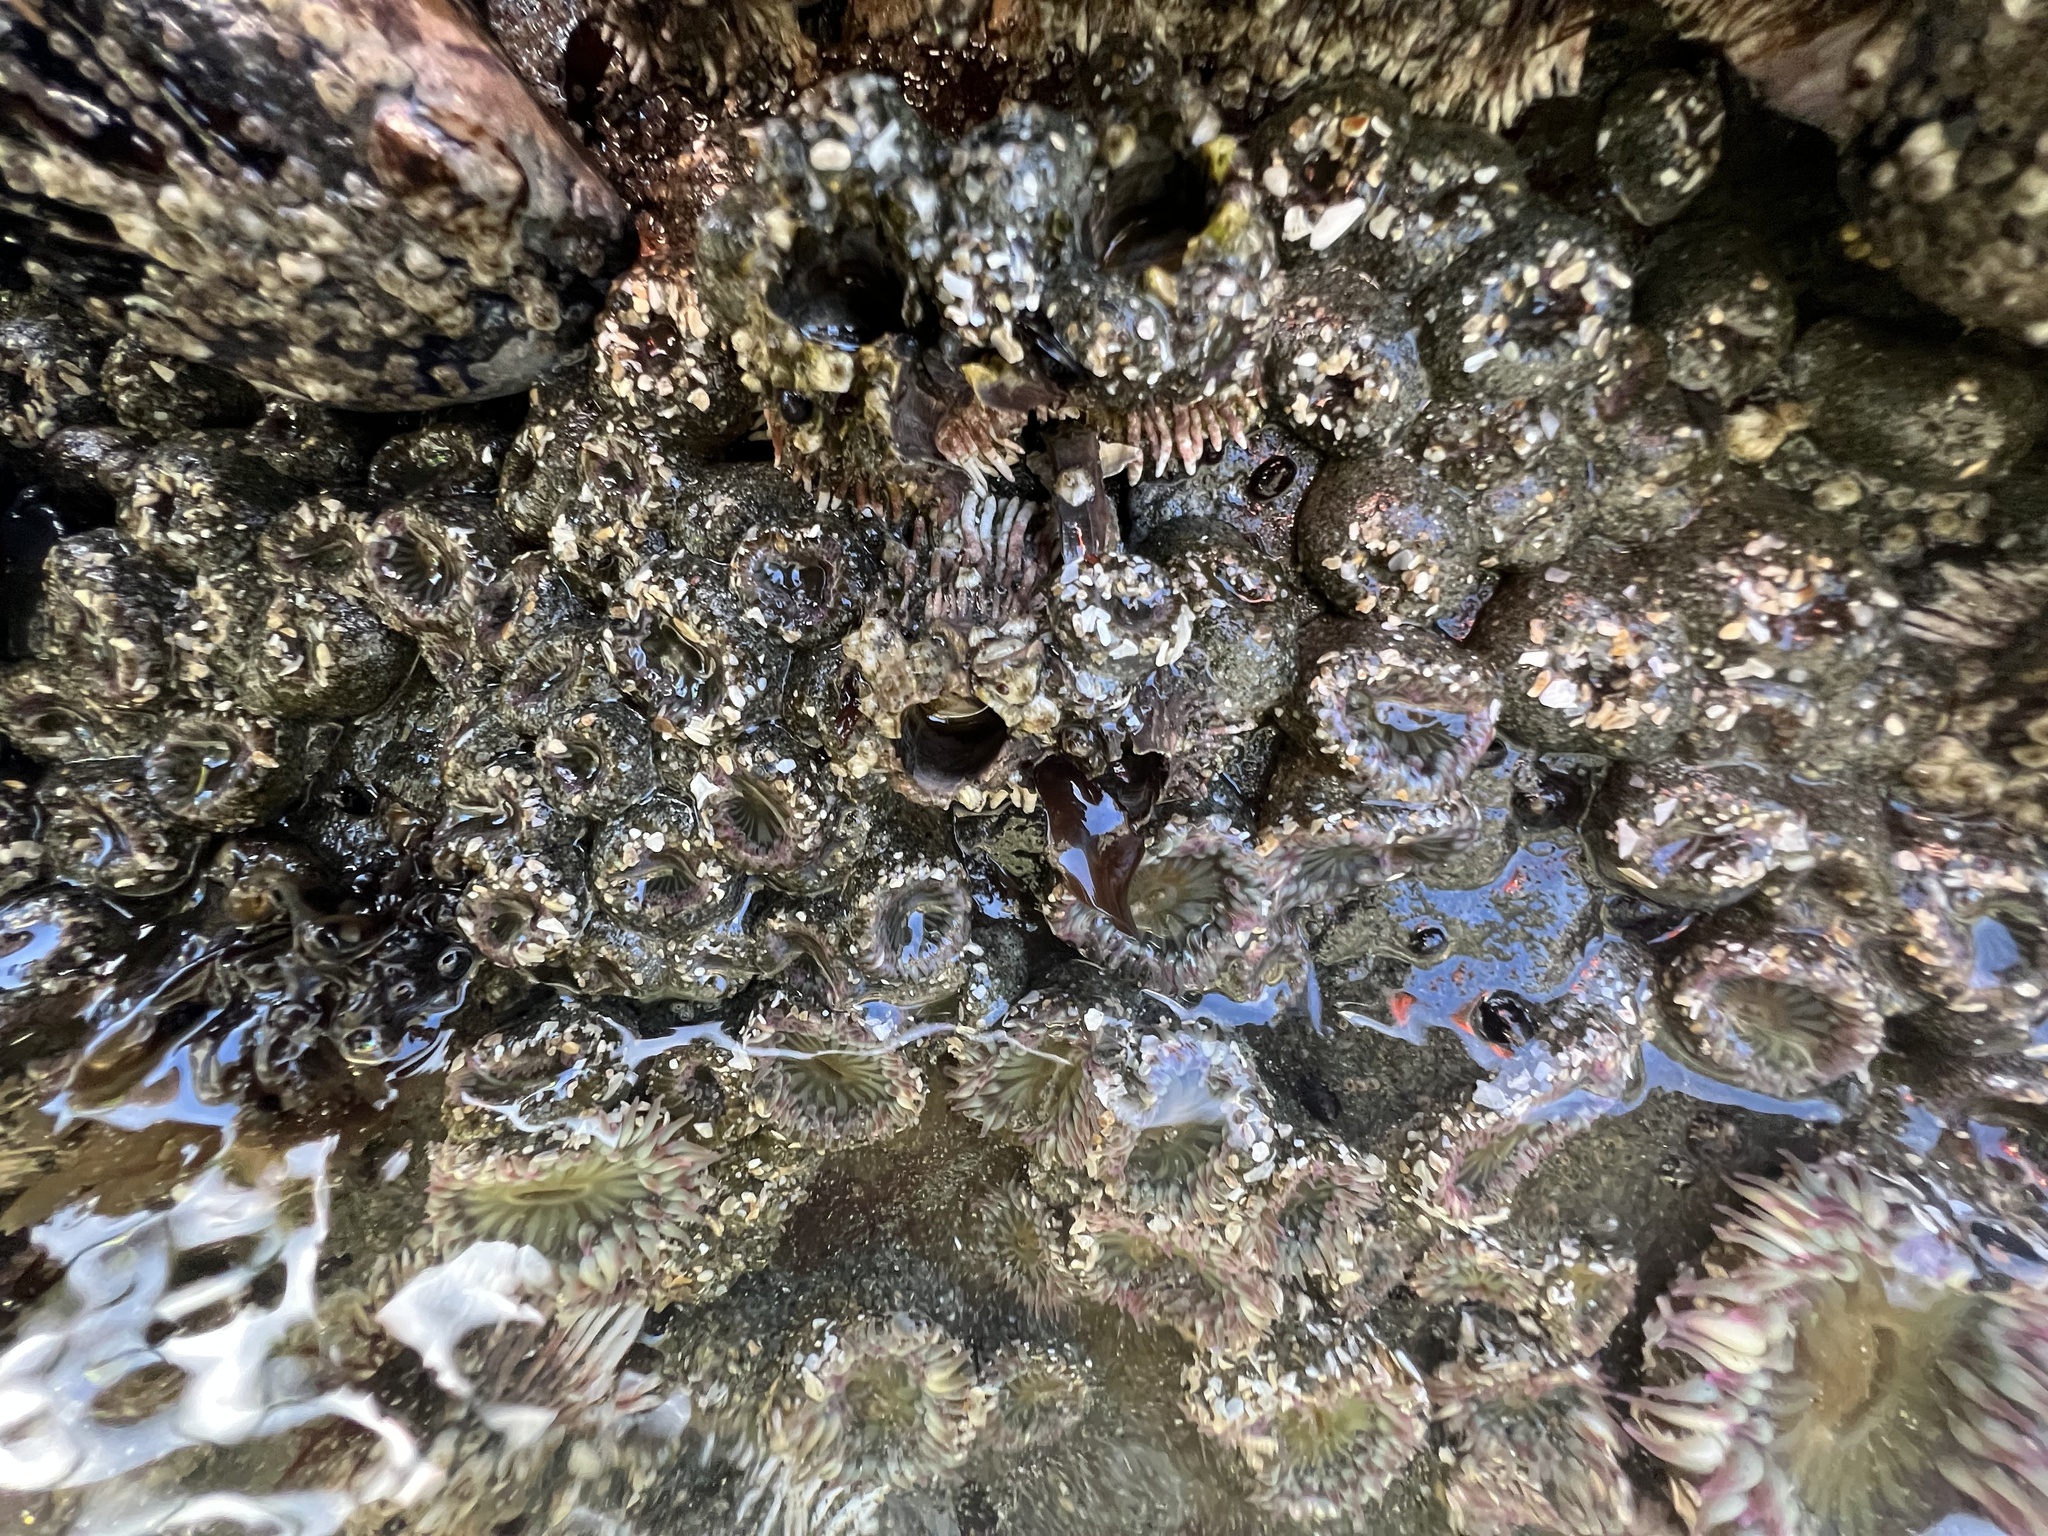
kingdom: Animalia
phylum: Cnidaria
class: Anthozoa
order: Actiniaria
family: Actiniidae
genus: Anthopleura
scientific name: Anthopleura elegantissima
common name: Clonal anemone
